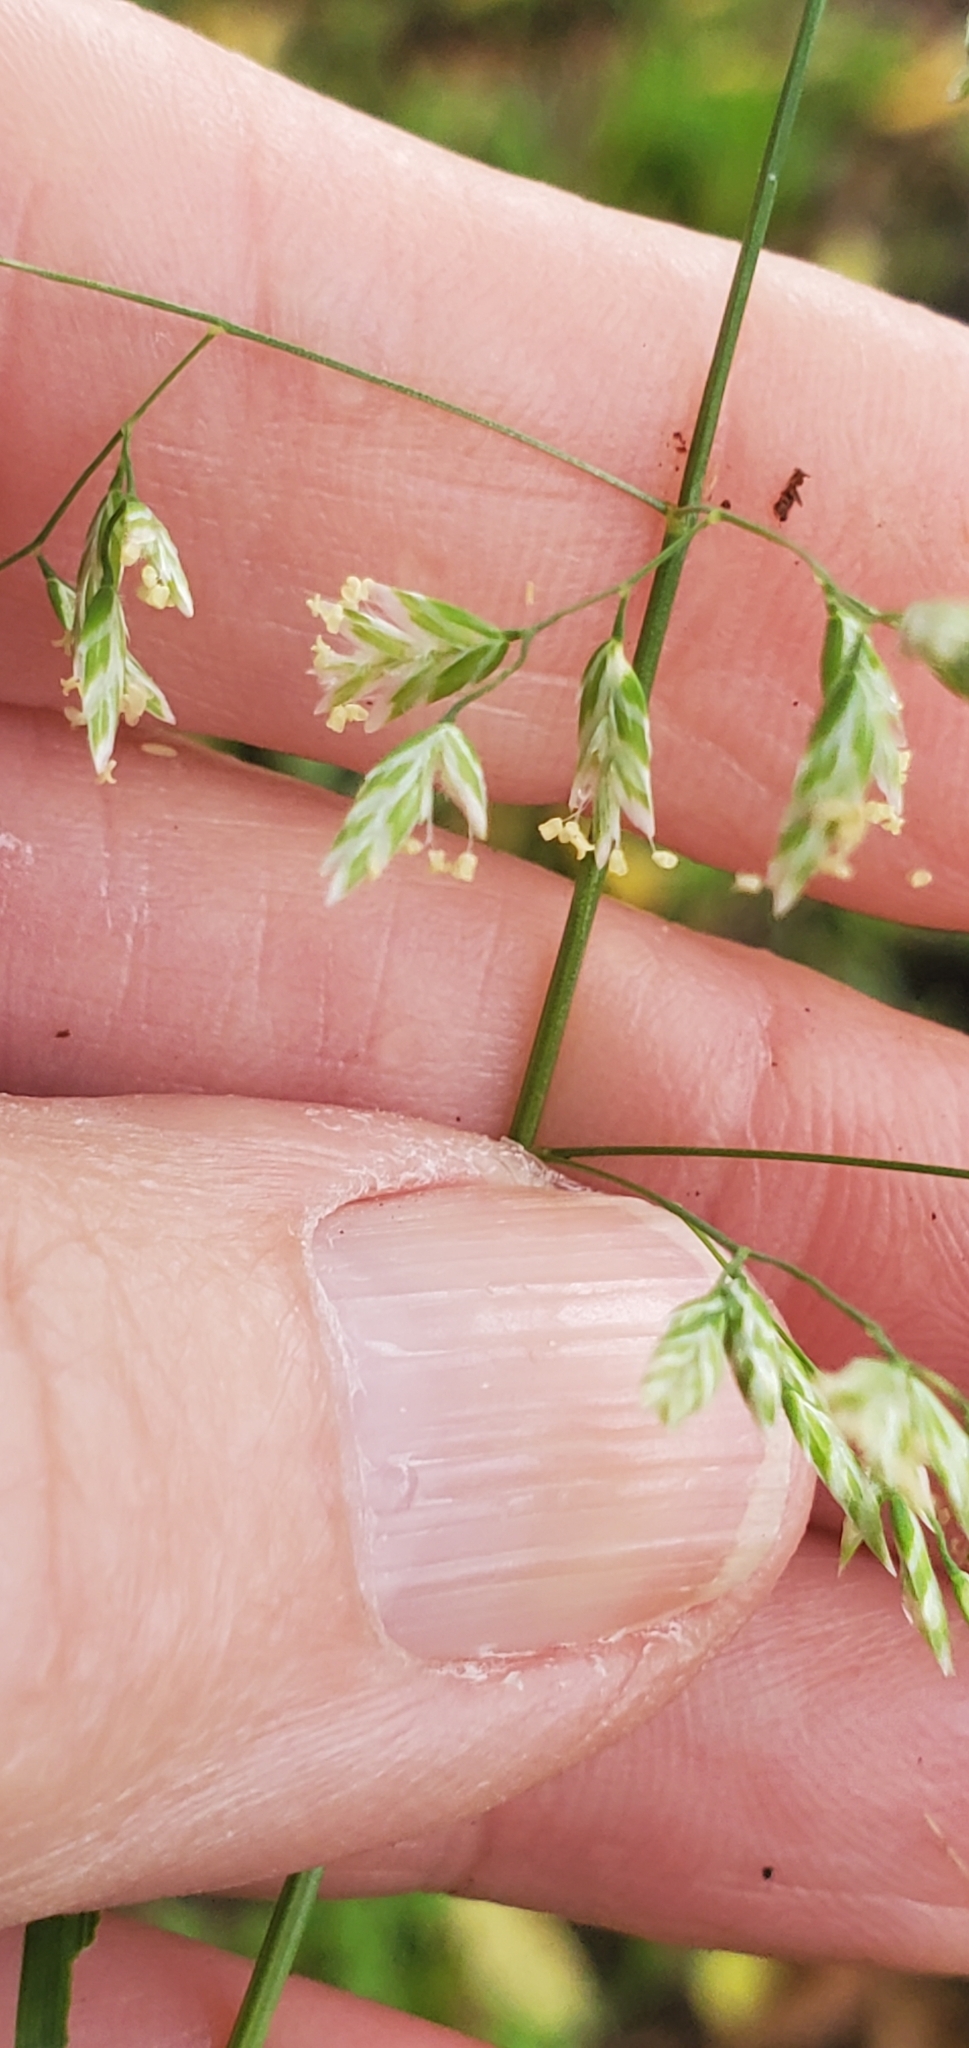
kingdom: Plantae
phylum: Tracheophyta
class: Liliopsida
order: Poales
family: Poaceae
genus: Poa
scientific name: Poa annua
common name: Annual bluegrass
